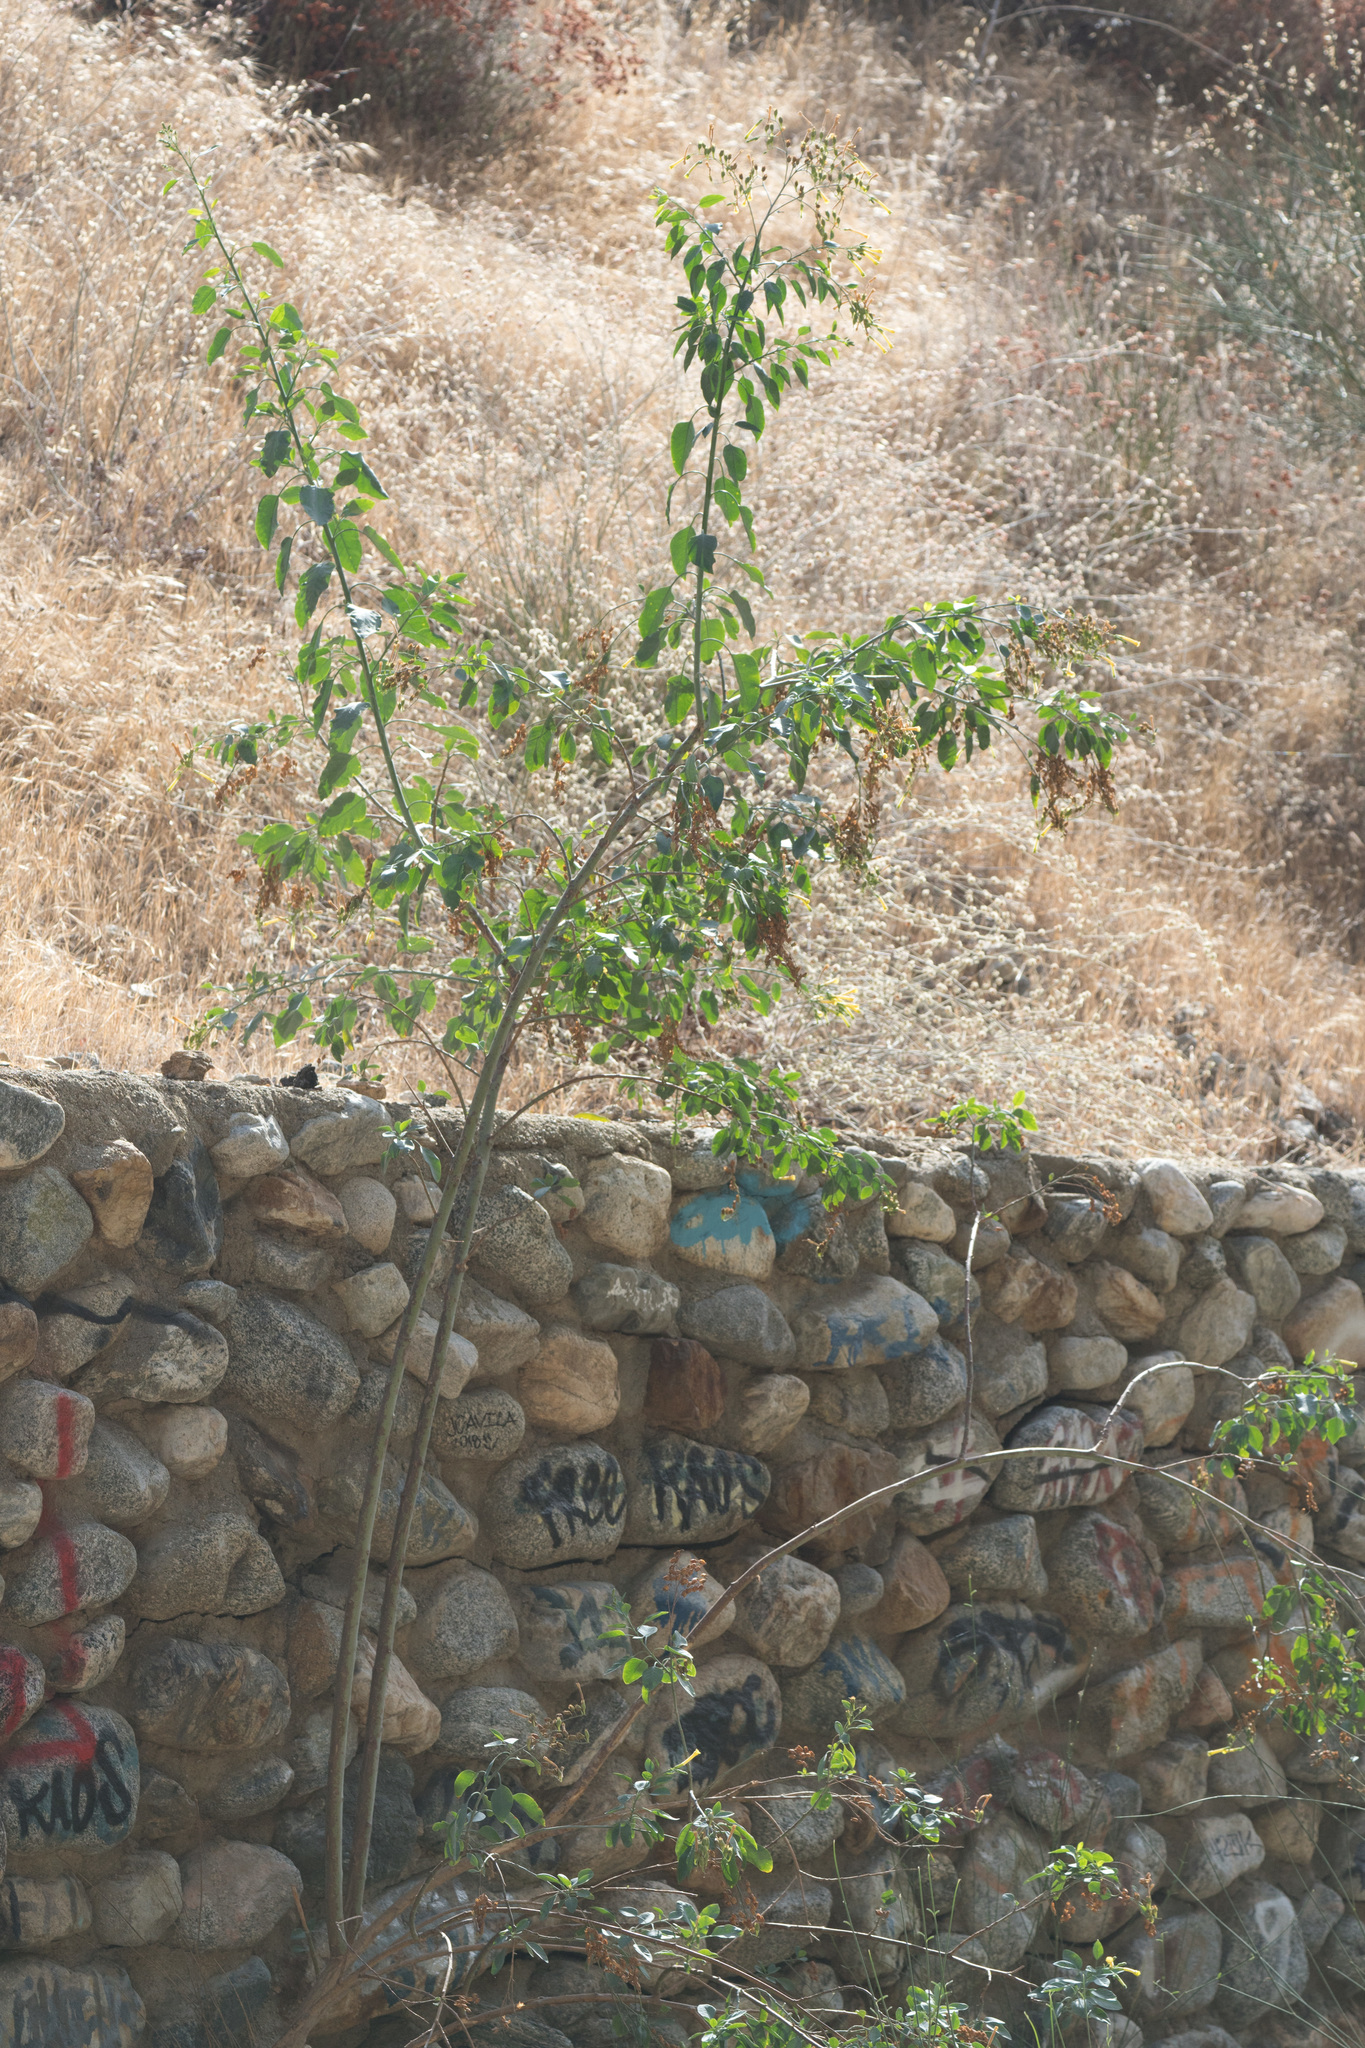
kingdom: Plantae
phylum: Tracheophyta
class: Magnoliopsida
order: Solanales
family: Solanaceae
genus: Nicotiana
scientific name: Nicotiana glauca
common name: Tree tobacco
